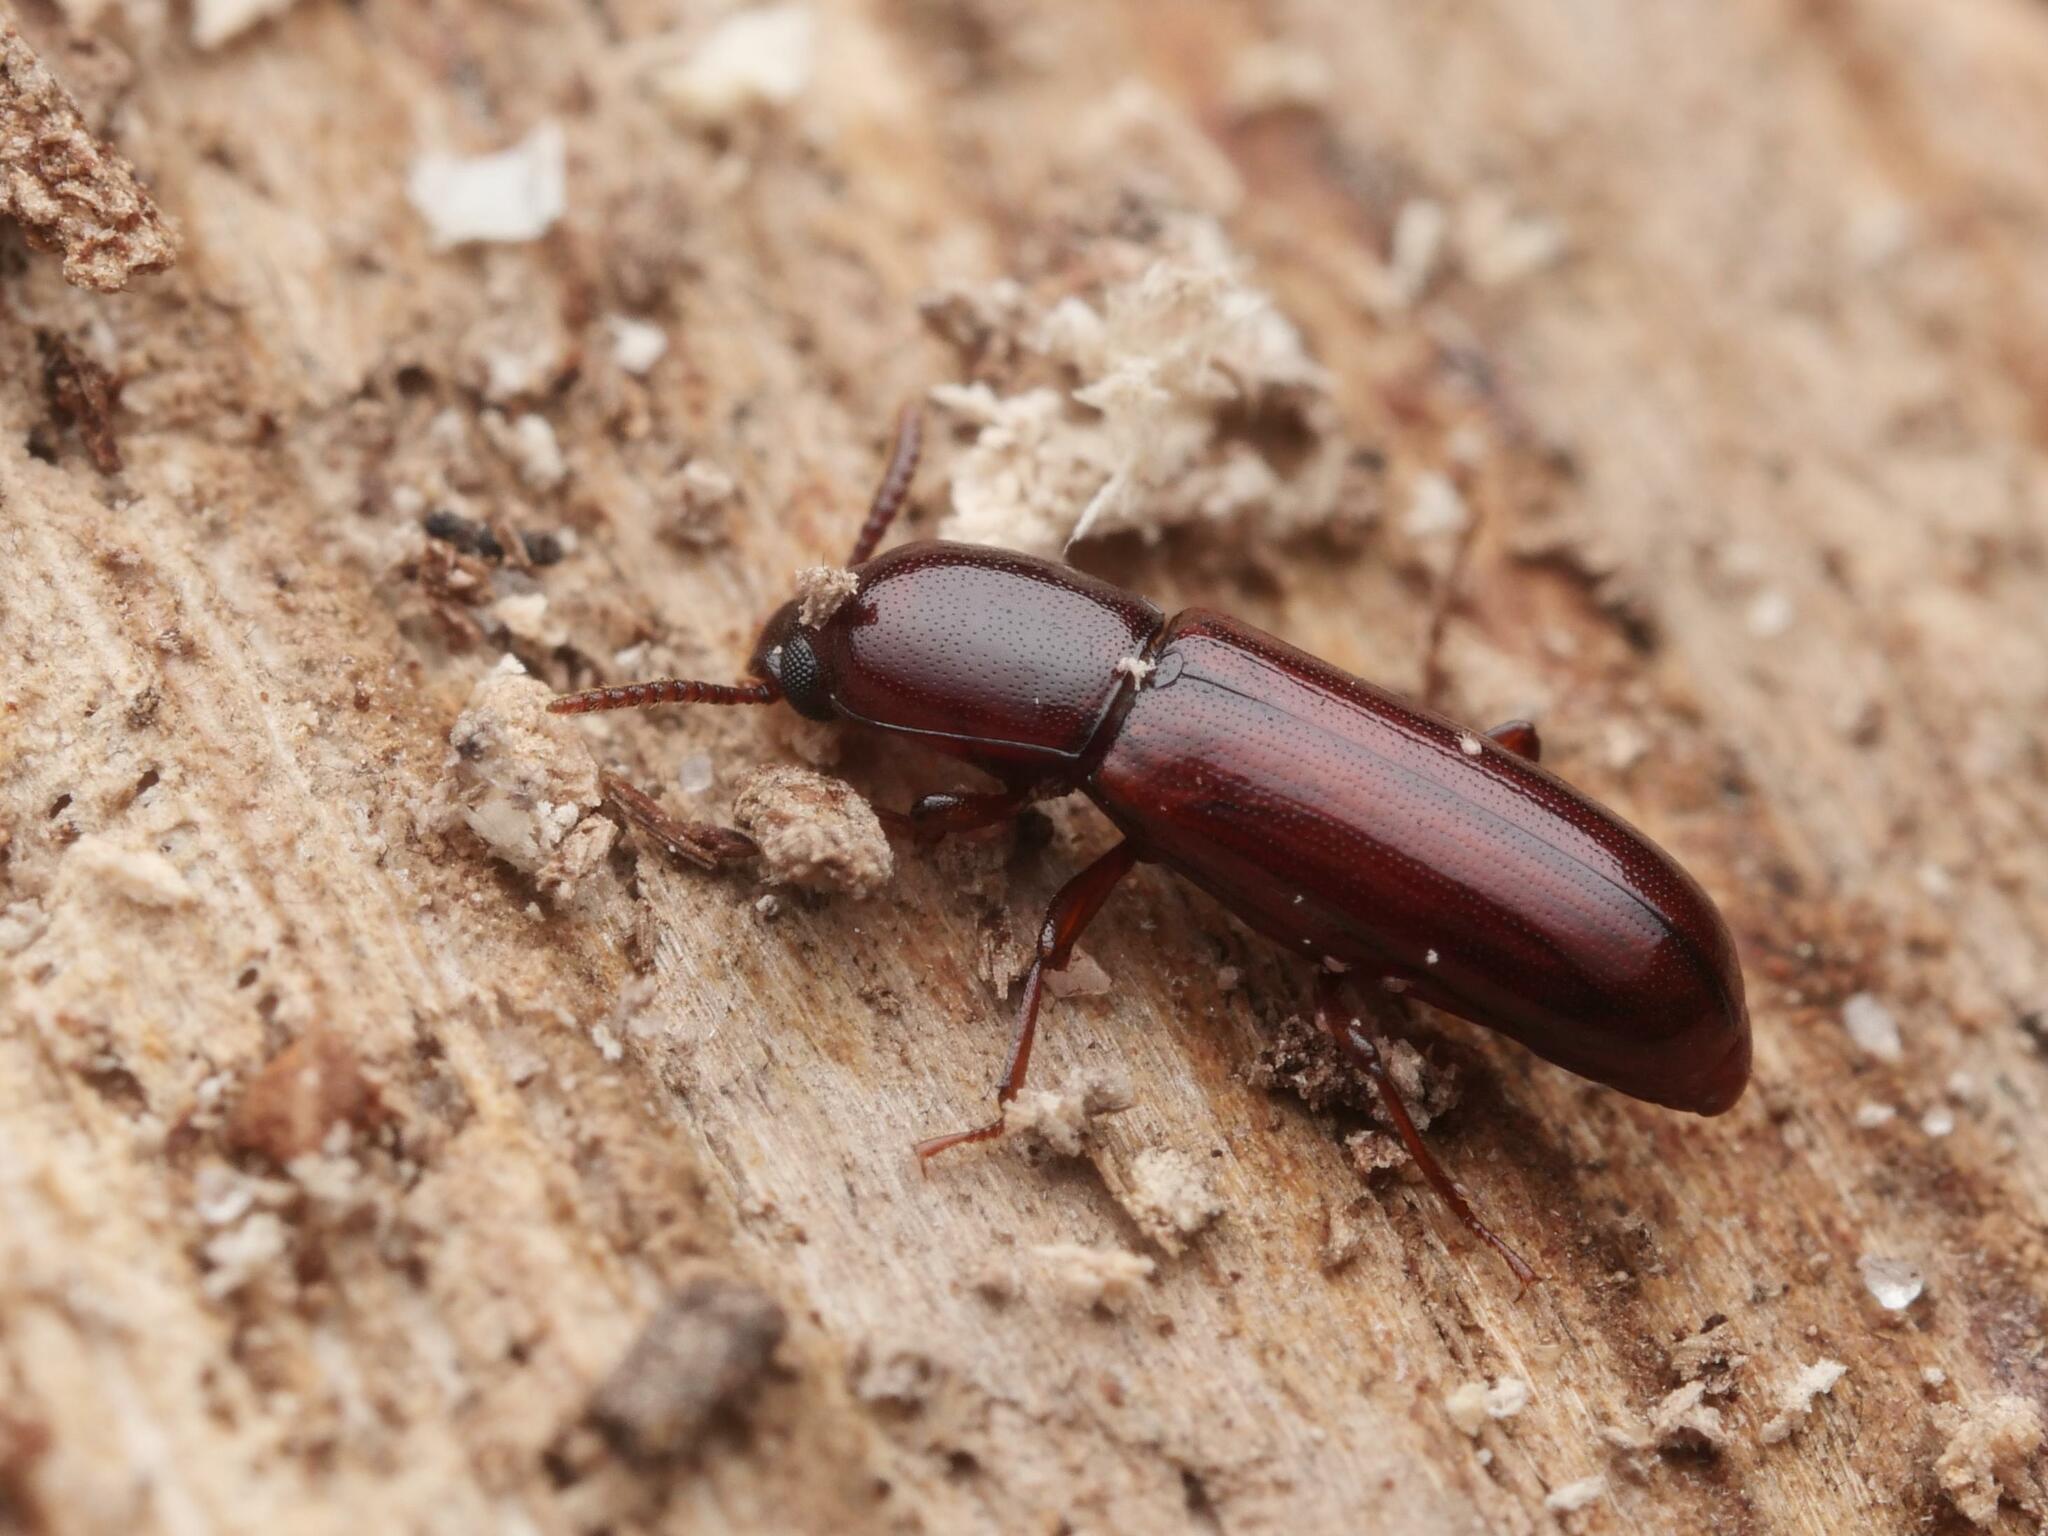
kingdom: Animalia
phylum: Arthropoda
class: Insecta
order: Coleoptera
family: Tenebrionidae
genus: Corticeus
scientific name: Corticeus unicolor
